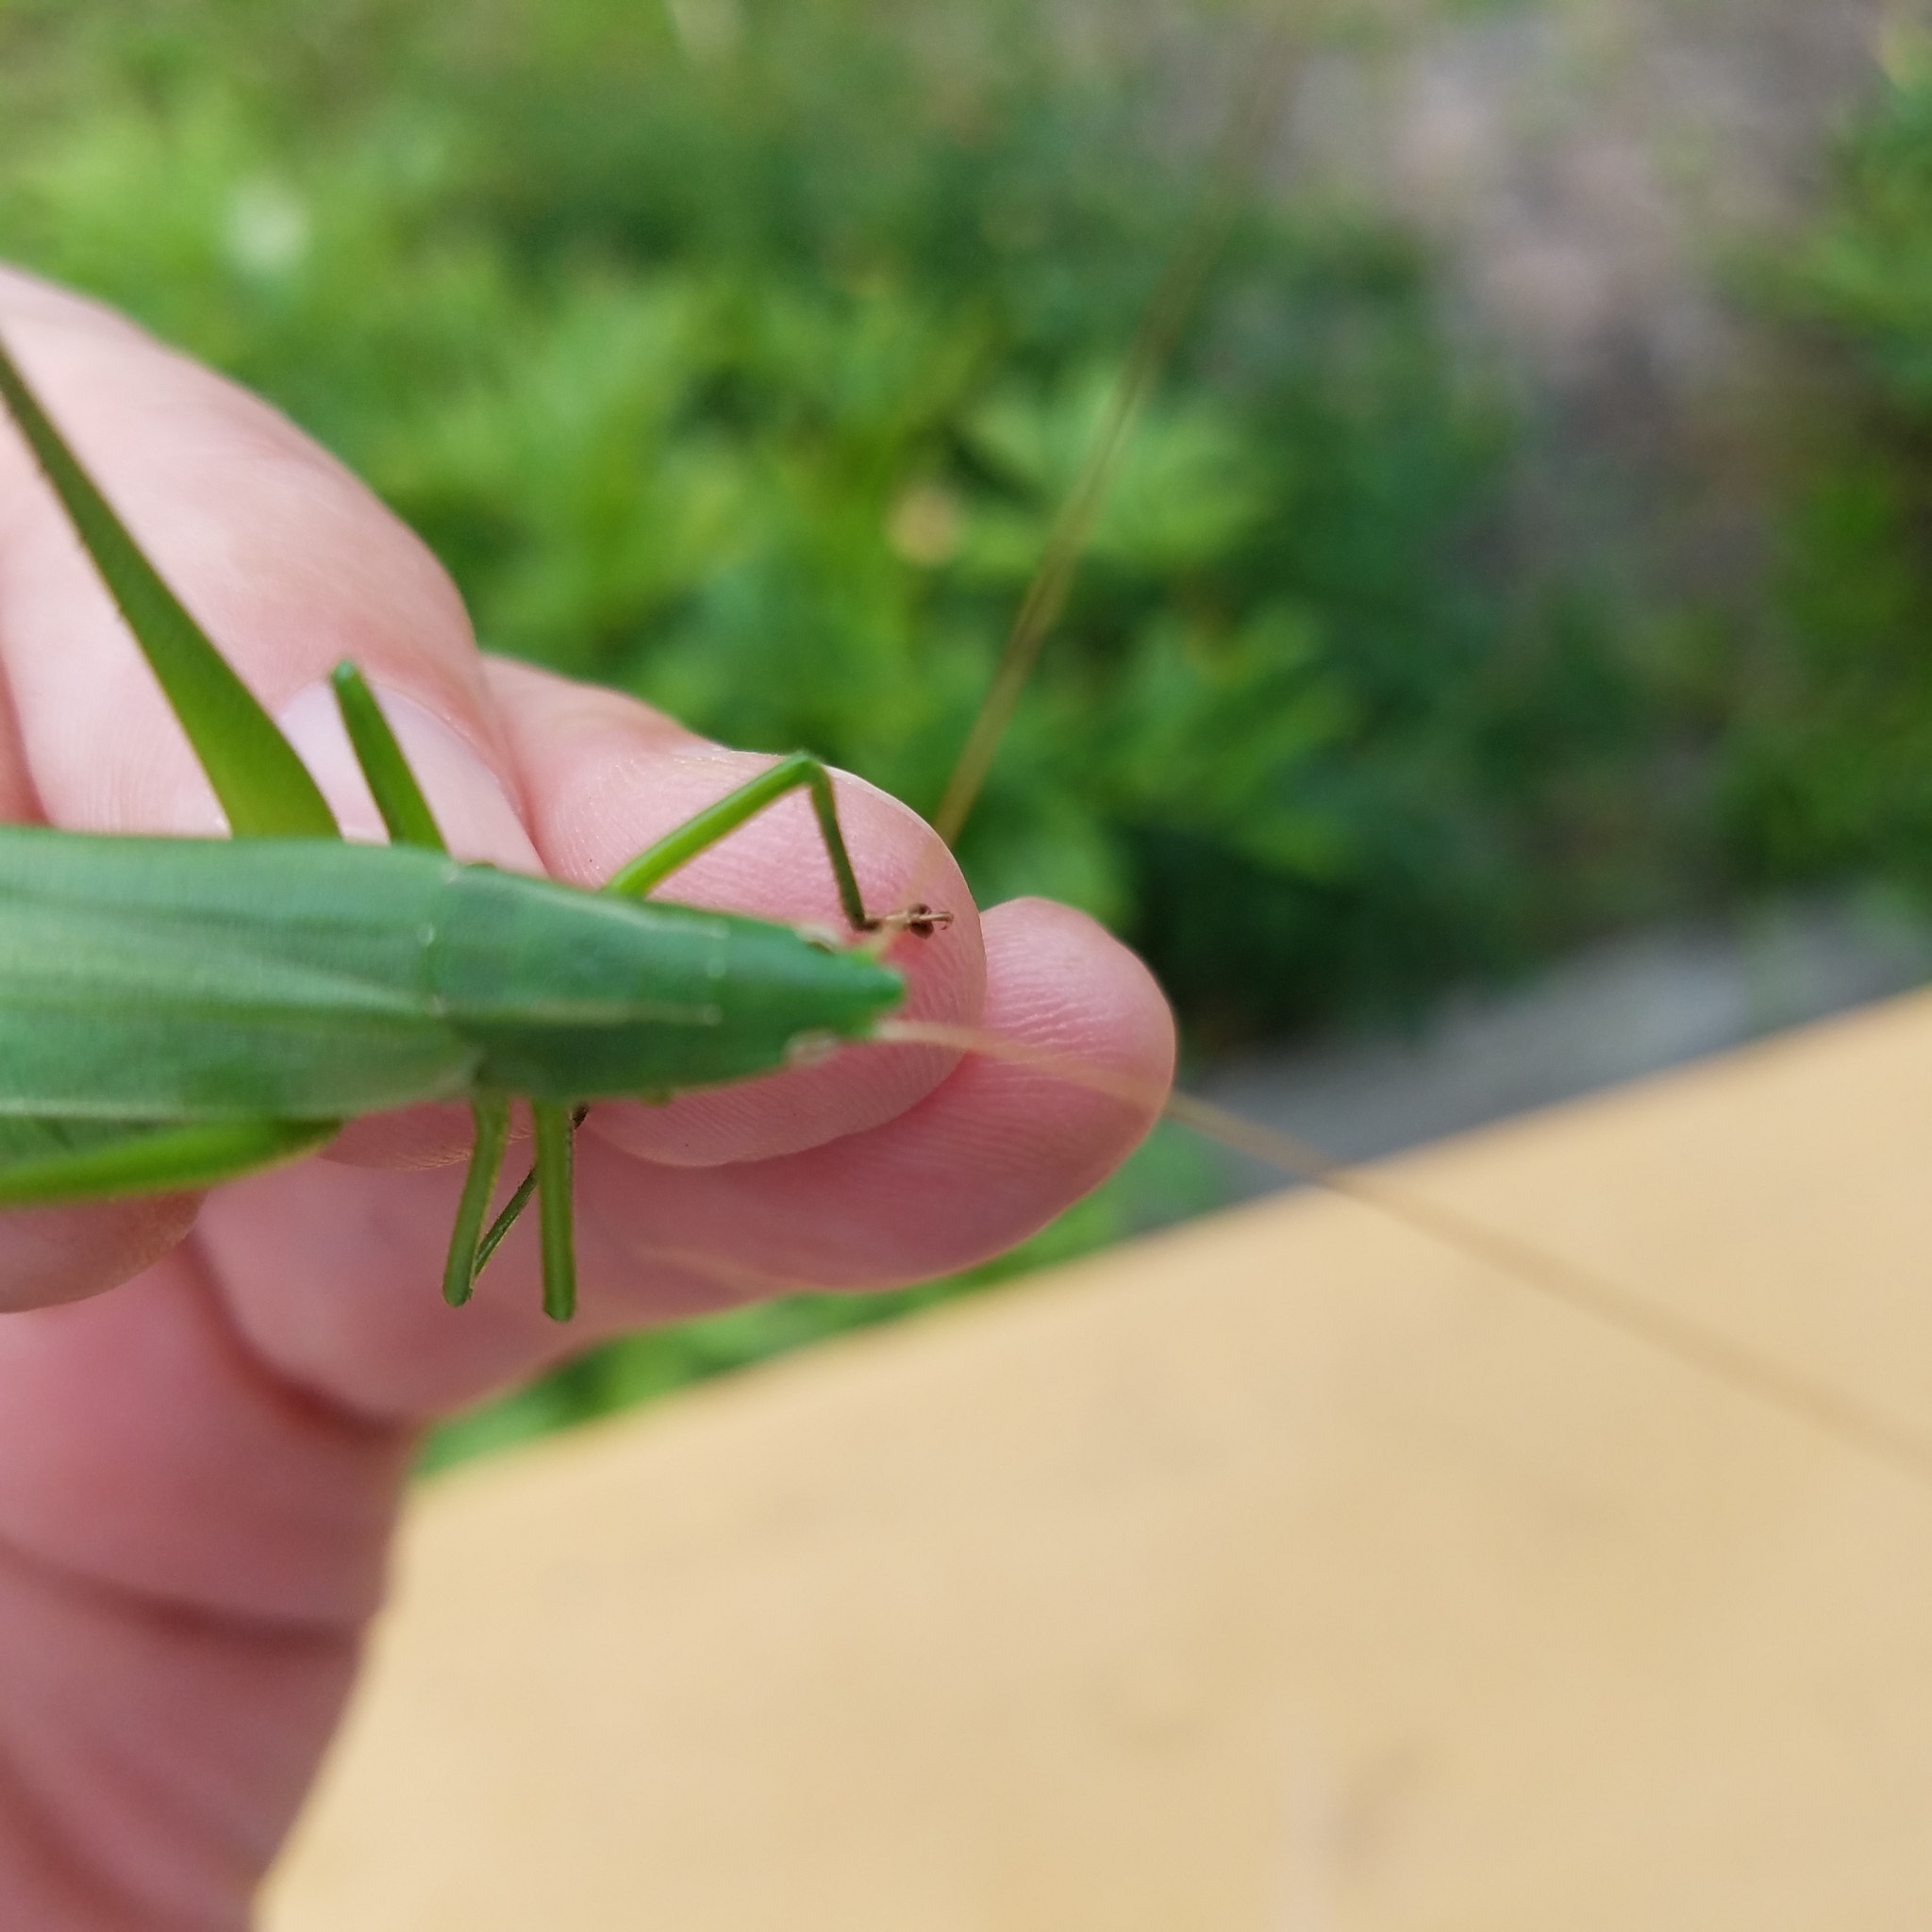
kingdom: Animalia
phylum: Arthropoda
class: Insecta
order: Orthoptera
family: Tettigoniidae
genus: Neoconocephalus
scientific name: Neoconocephalus retusus
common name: Round-tipped conehead
